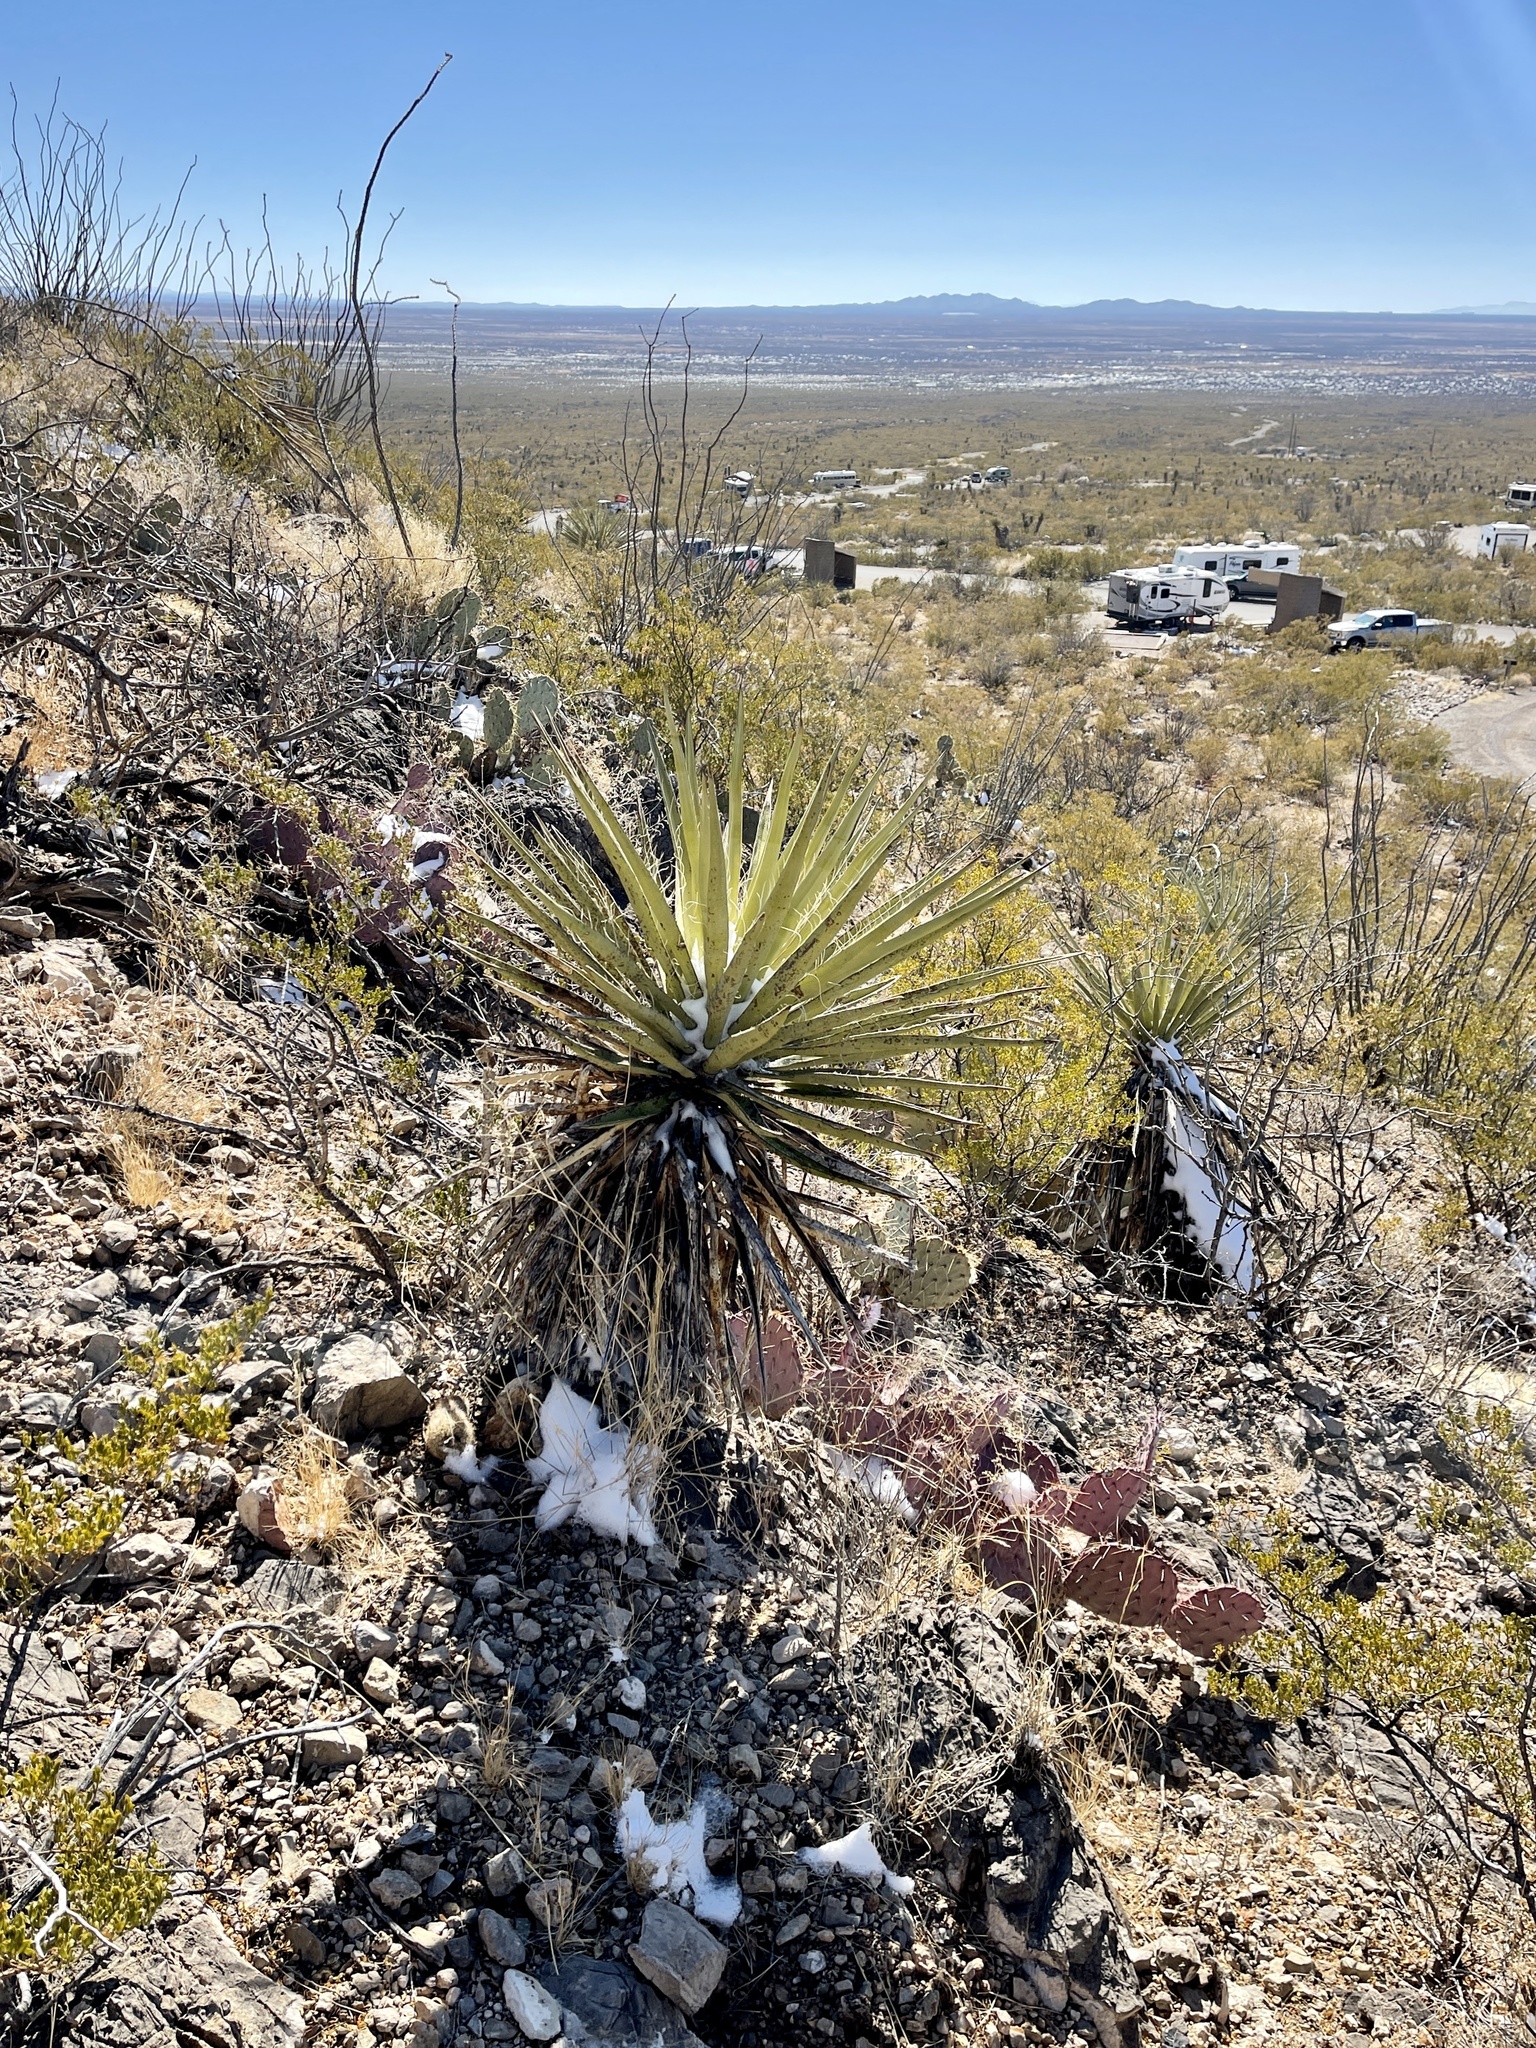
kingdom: Plantae
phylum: Tracheophyta
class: Liliopsida
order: Asparagales
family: Asparagaceae
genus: Yucca
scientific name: Yucca treculiana
